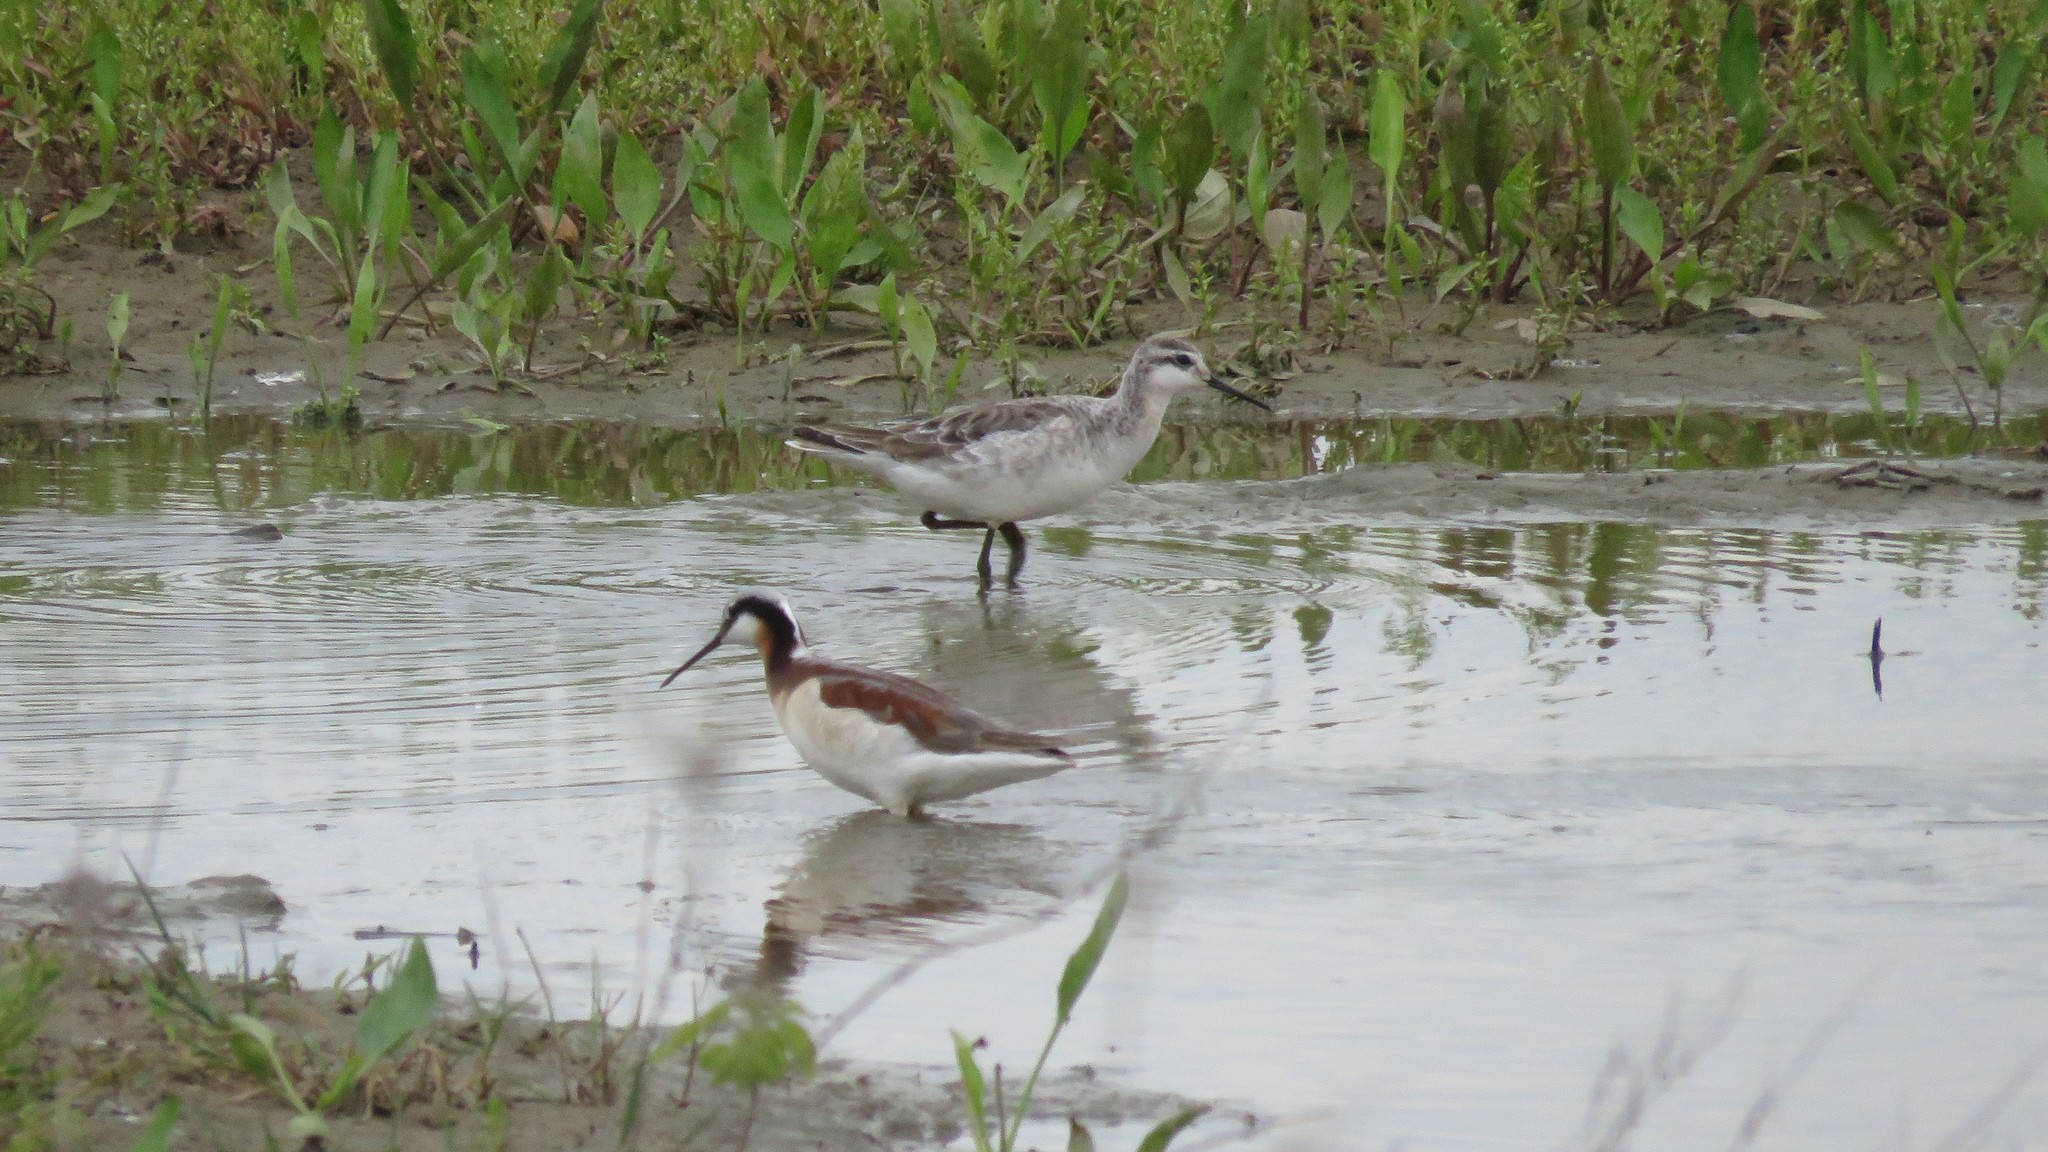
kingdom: Animalia
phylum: Chordata
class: Aves
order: Charadriiformes
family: Scolopacidae
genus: Phalaropus
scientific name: Phalaropus tricolor
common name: Wilson's phalarope
